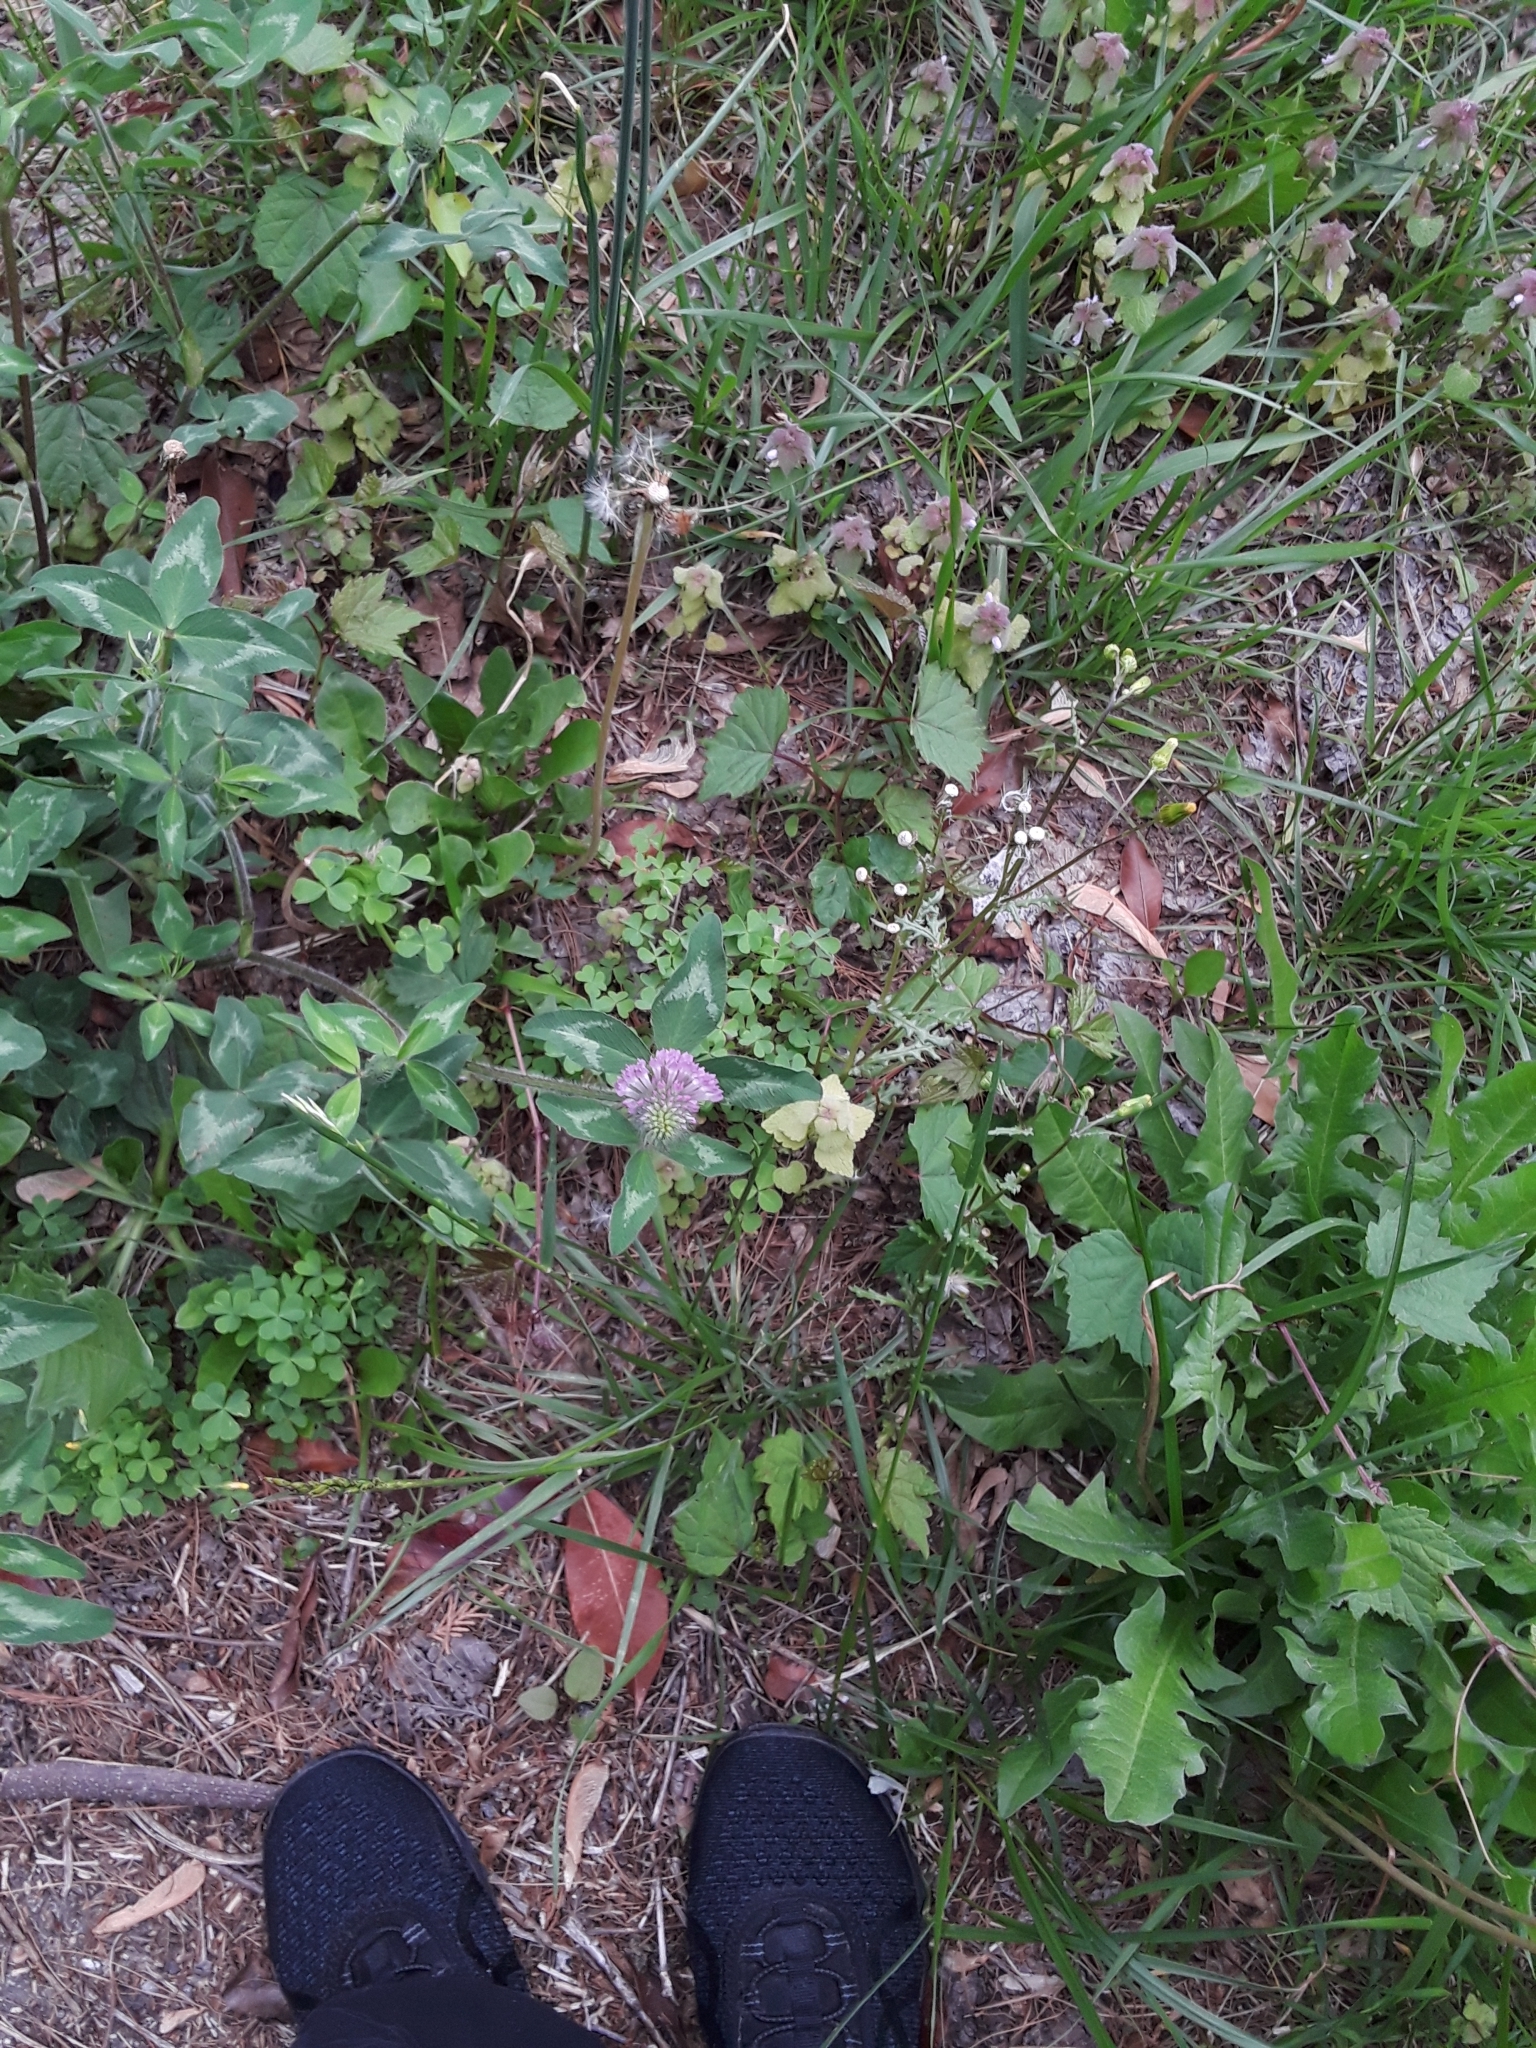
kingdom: Plantae
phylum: Tracheophyta
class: Magnoliopsida
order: Fabales
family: Fabaceae
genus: Trifolium
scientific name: Trifolium pratense
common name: Red clover
